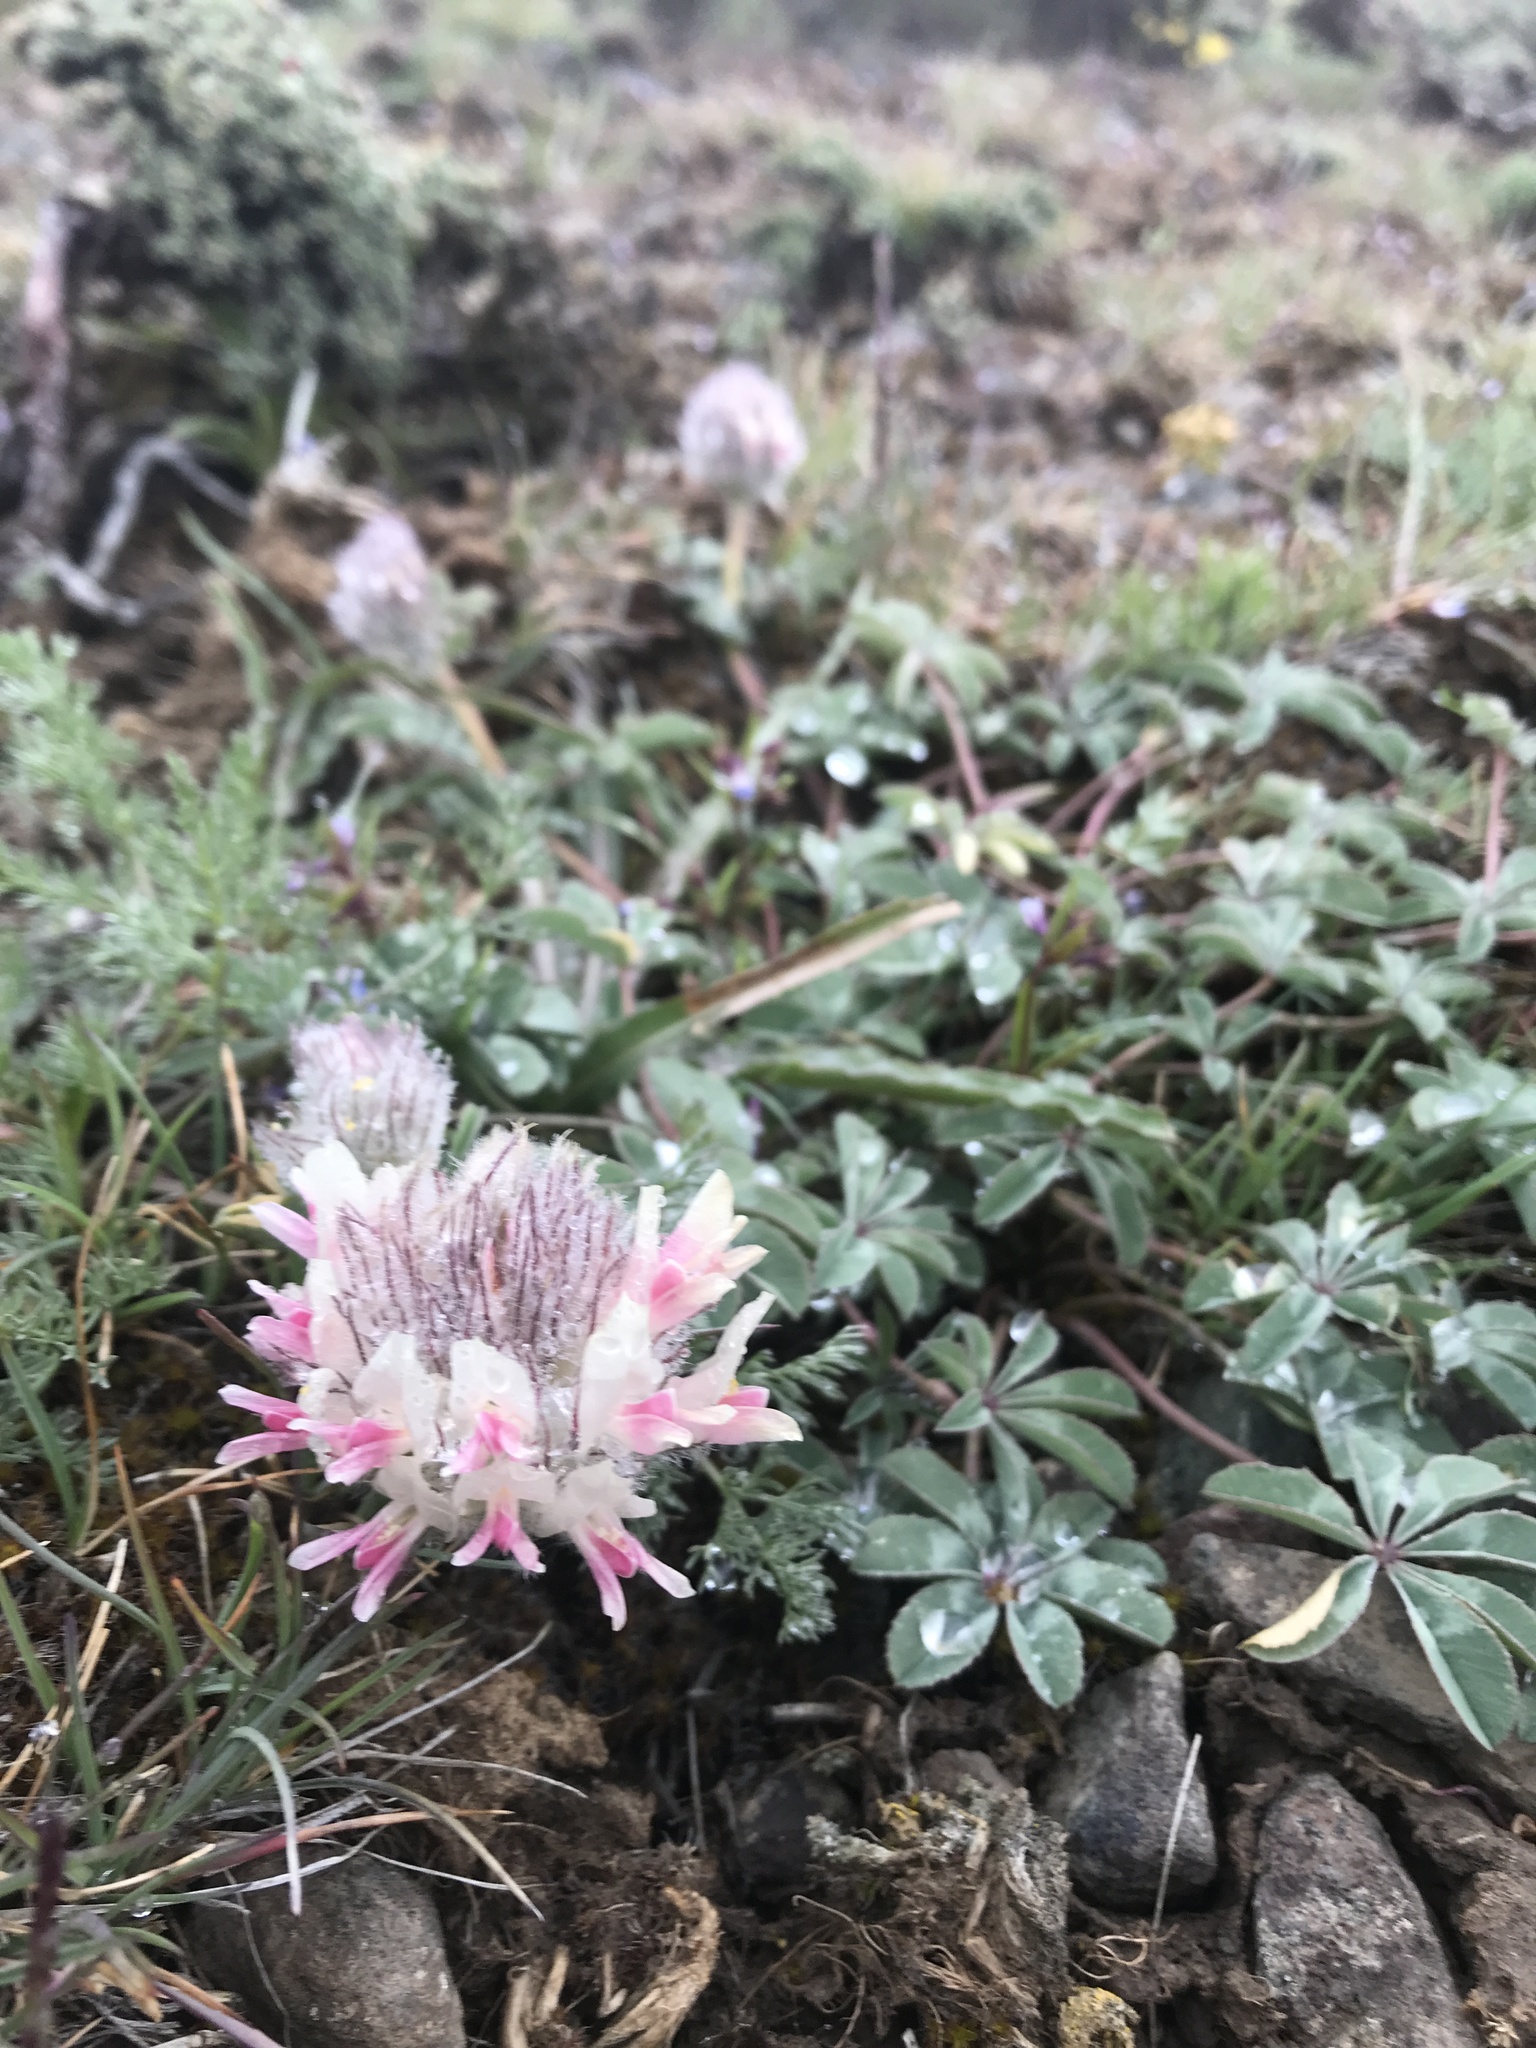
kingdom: Plantae
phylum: Tracheophyta
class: Magnoliopsida
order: Fabales
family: Fabaceae
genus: Trifolium
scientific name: Trifolium macrocephalum
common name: Large-head clover
